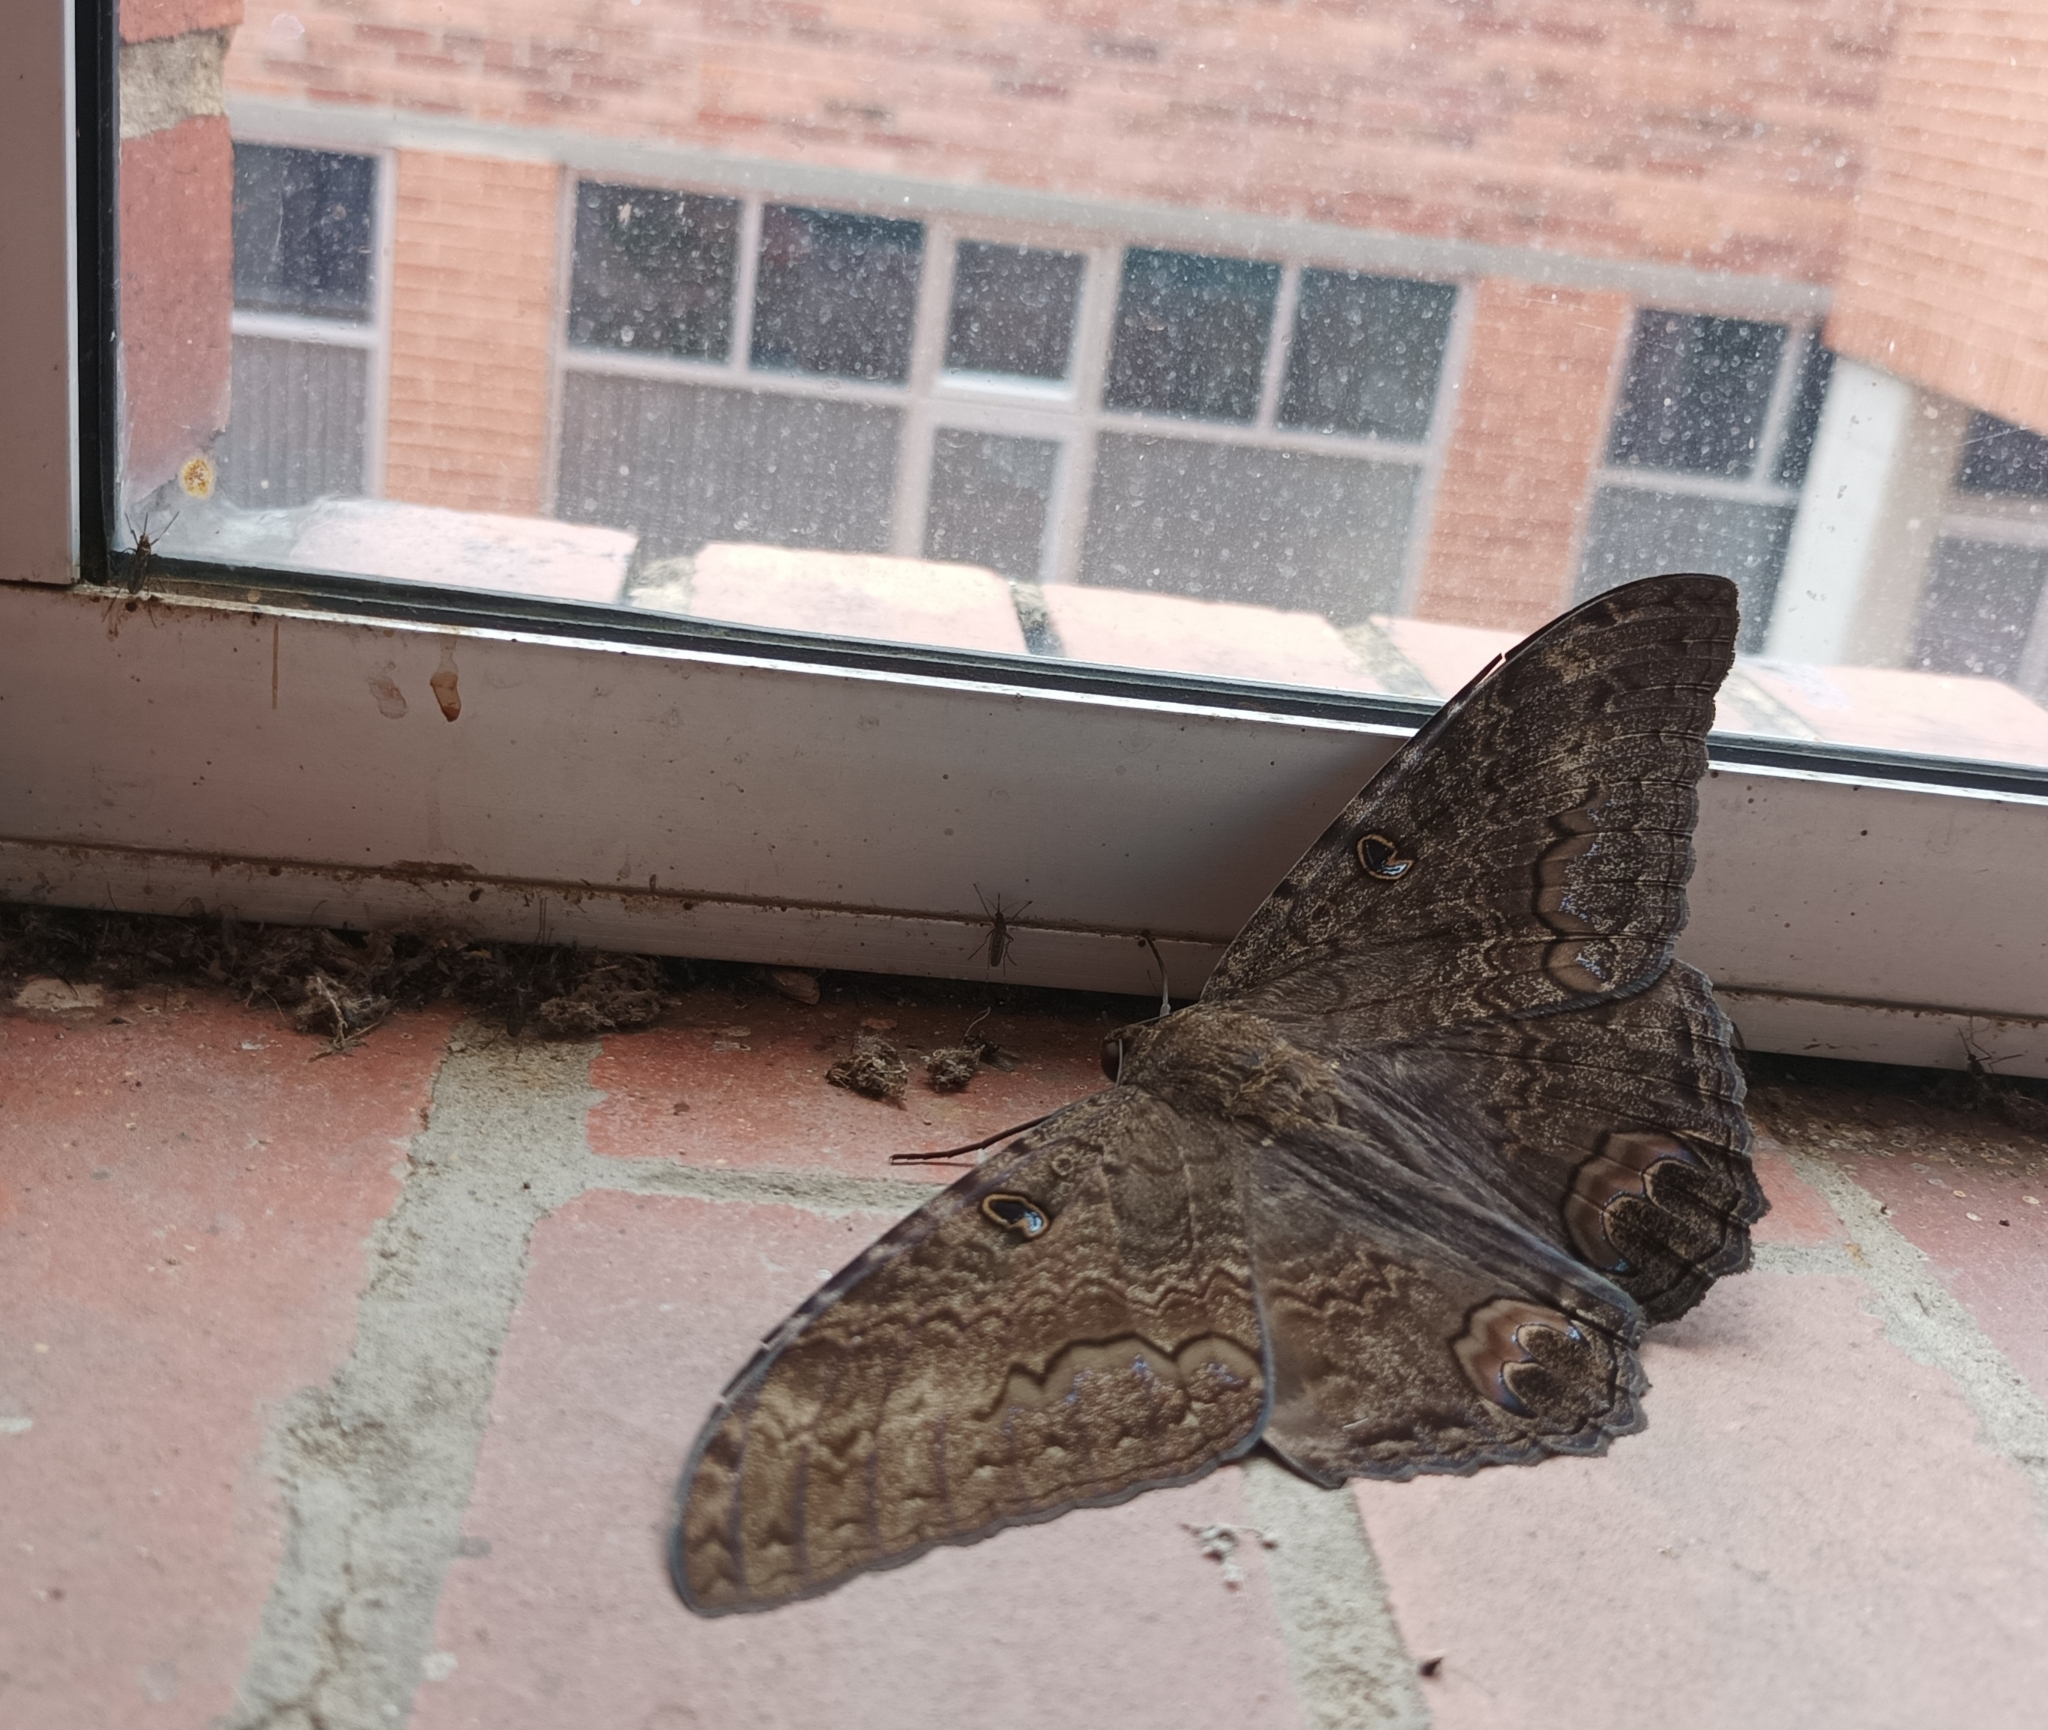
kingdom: Animalia
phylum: Arthropoda
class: Insecta
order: Lepidoptera
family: Erebidae
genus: Ascalapha
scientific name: Ascalapha odorata
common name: Black witch
